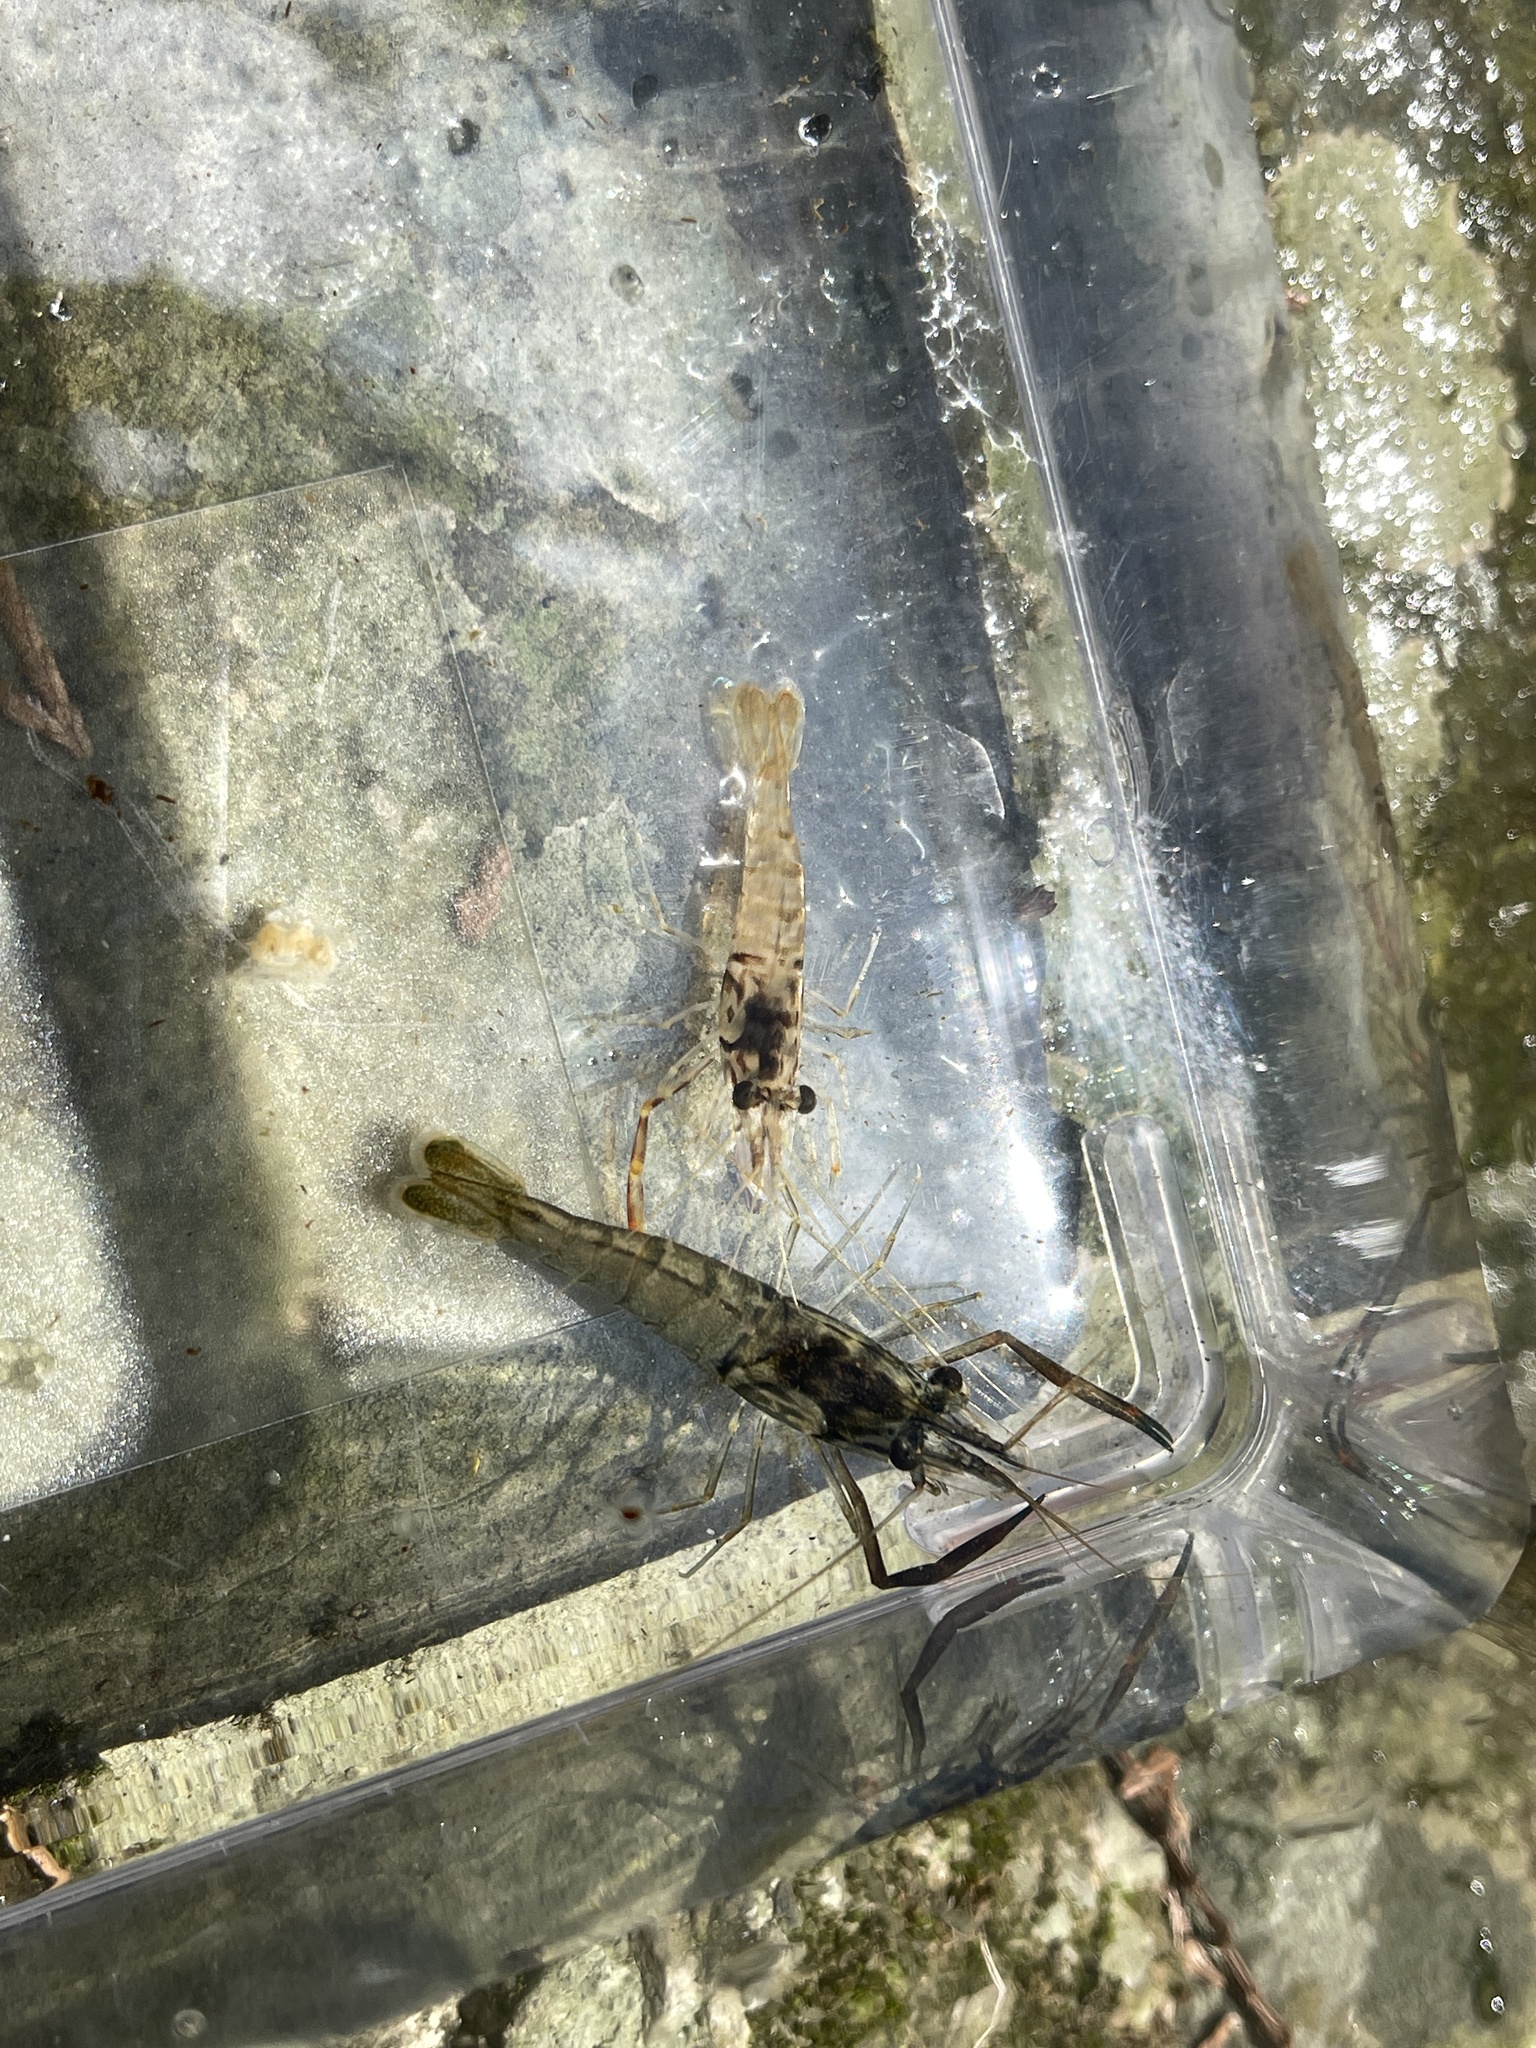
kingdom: Animalia
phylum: Arthropoda
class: Malacostraca
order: Decapoda
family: Palaemonidae
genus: Macrobrachium
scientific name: Macrobrachium asperulum
